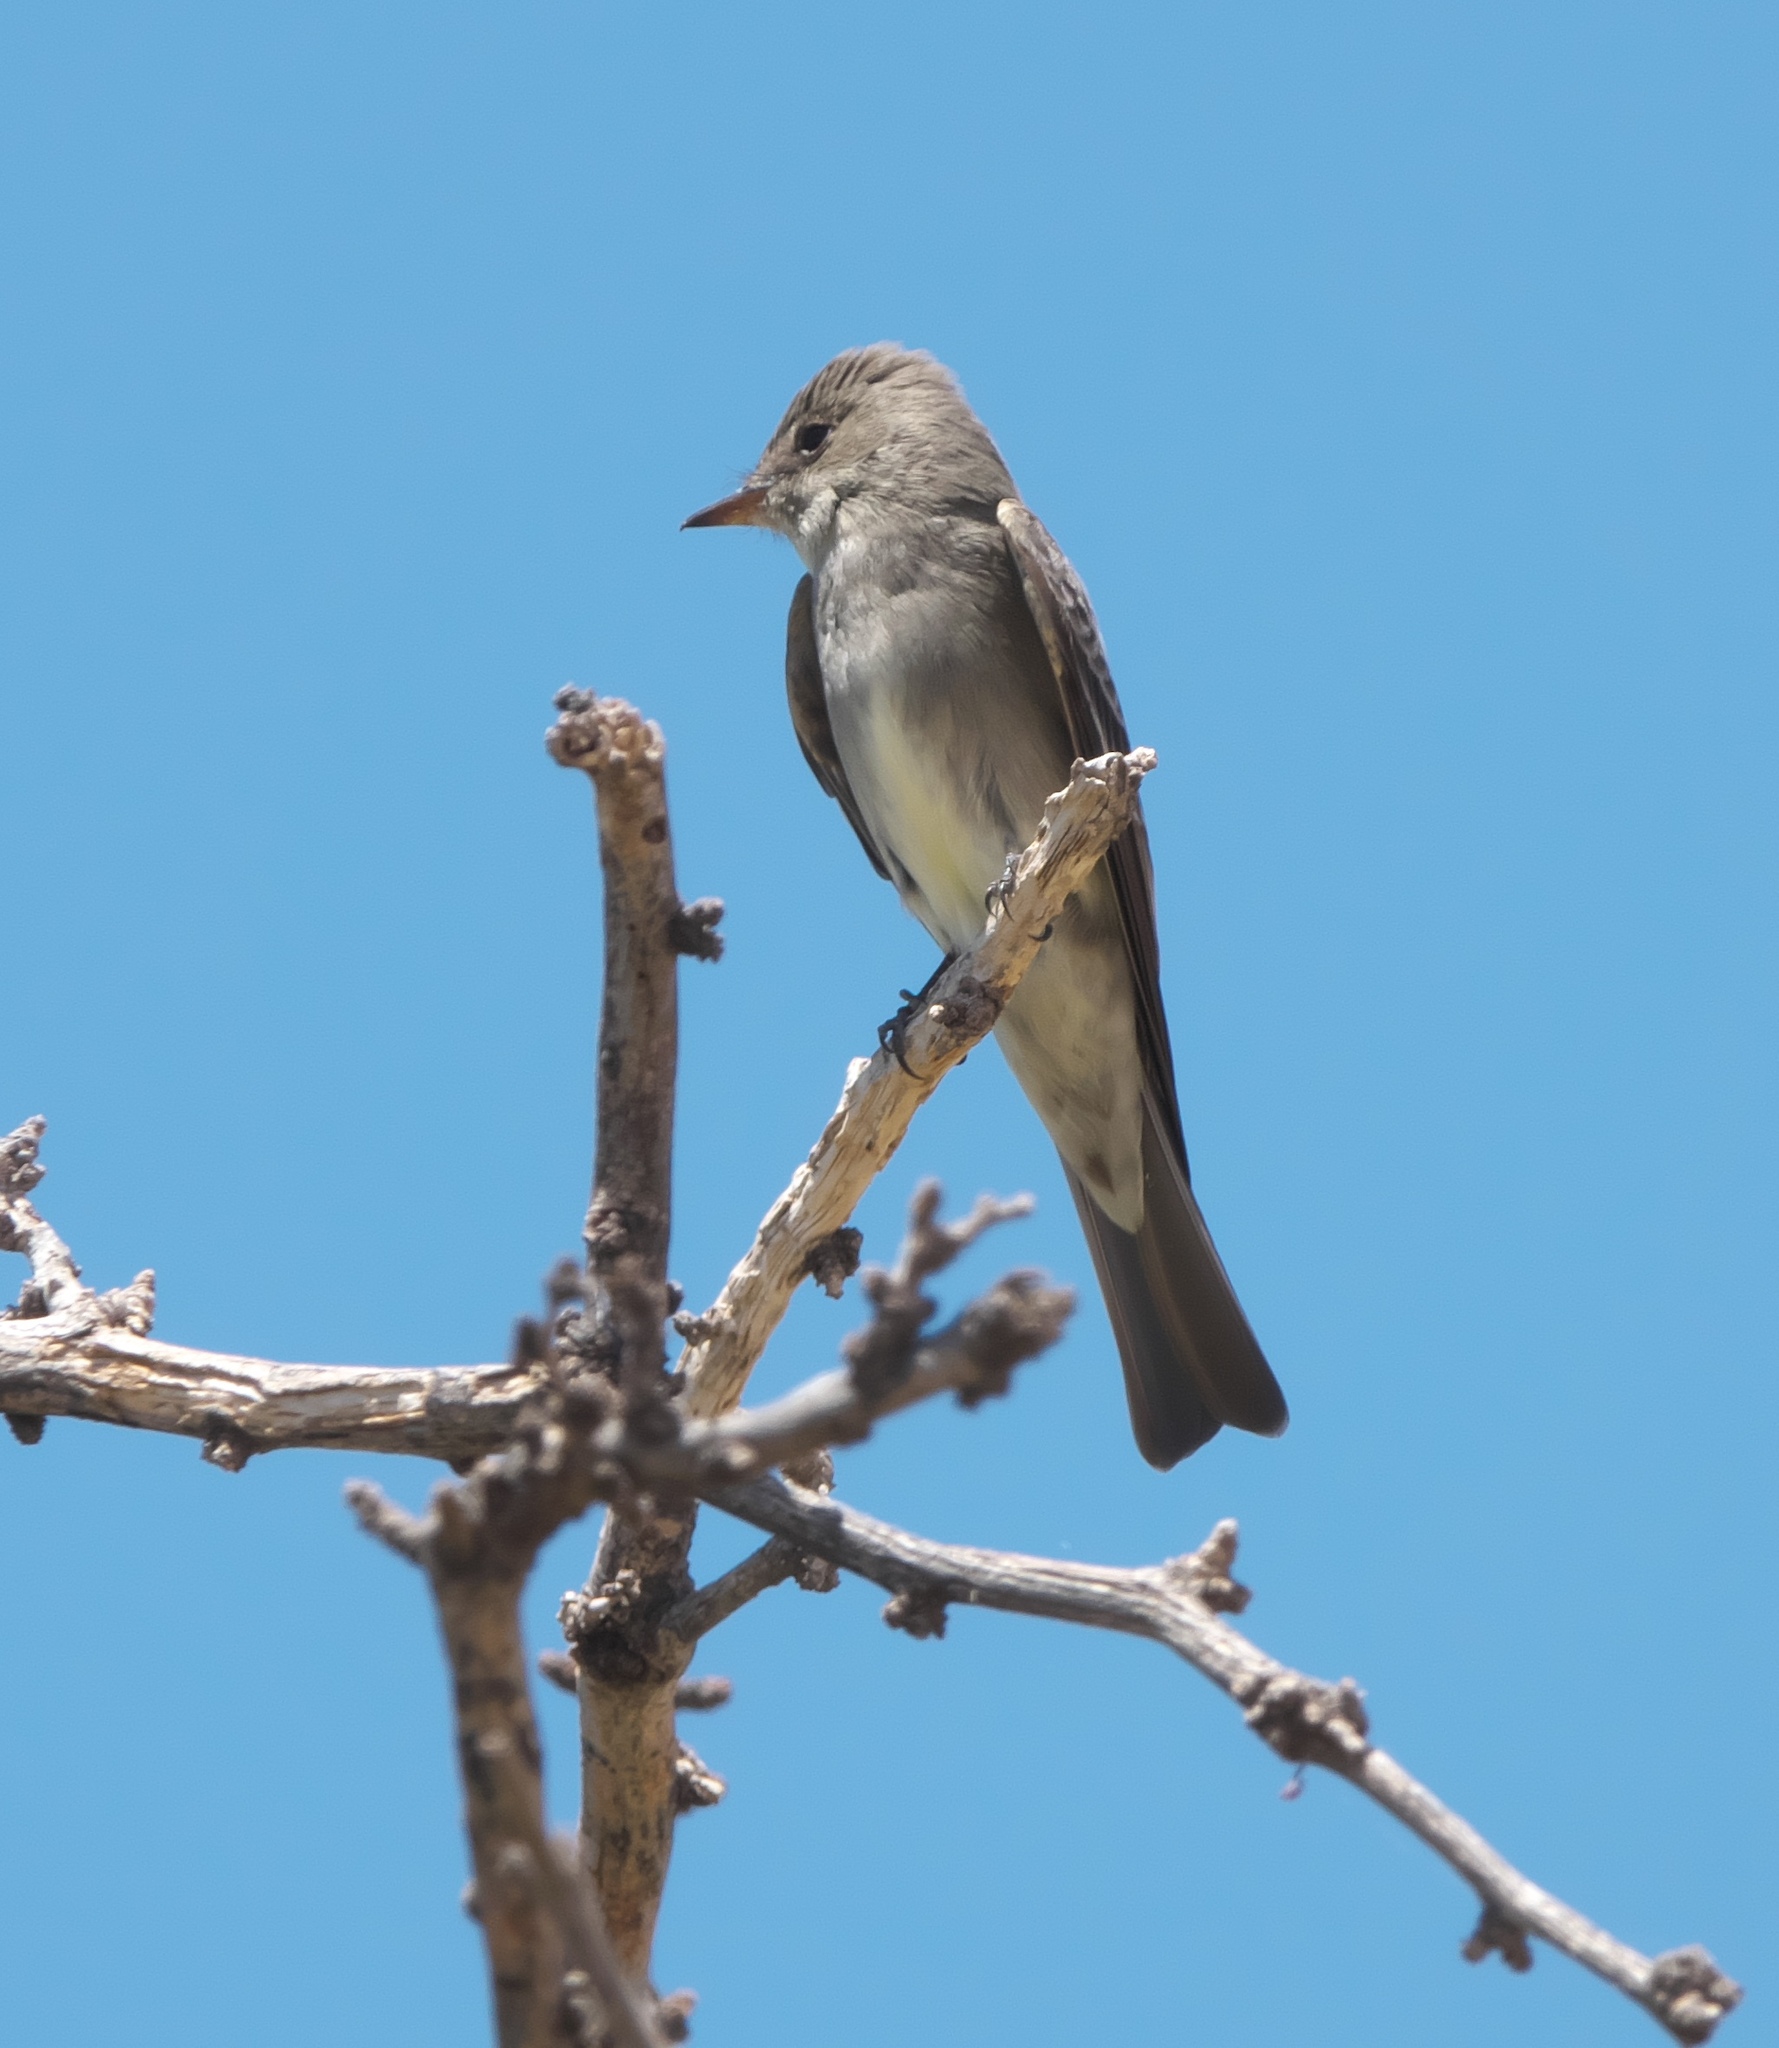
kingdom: Animalia
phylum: Chordata
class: Aves
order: Passeriformes
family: Tyrannidae
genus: Contopus
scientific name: Contopus sordidulus
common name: Western wood-pewee
